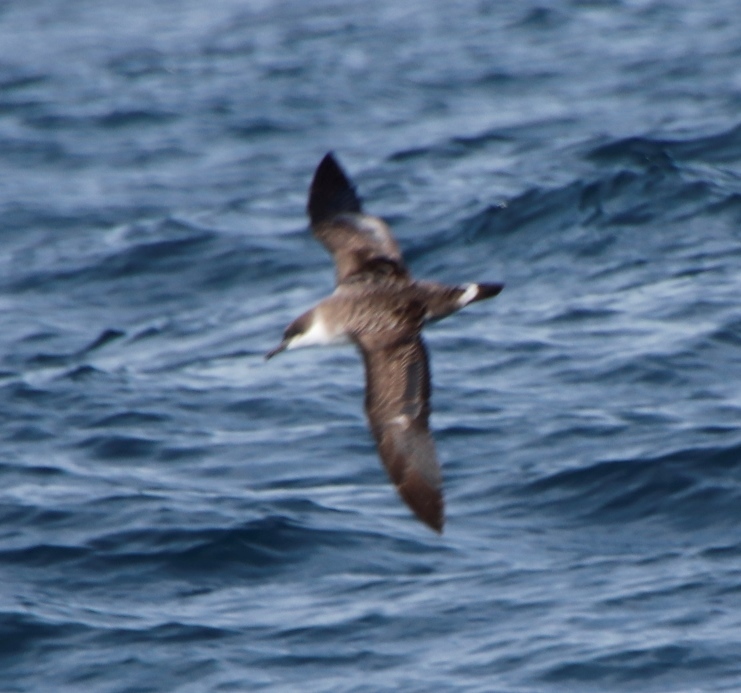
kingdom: Animalia
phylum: Chordata
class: Aves
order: Procellariiformes
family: Procellariidae
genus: Puffinus
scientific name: Puffinus gravis
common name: Great shearwater
